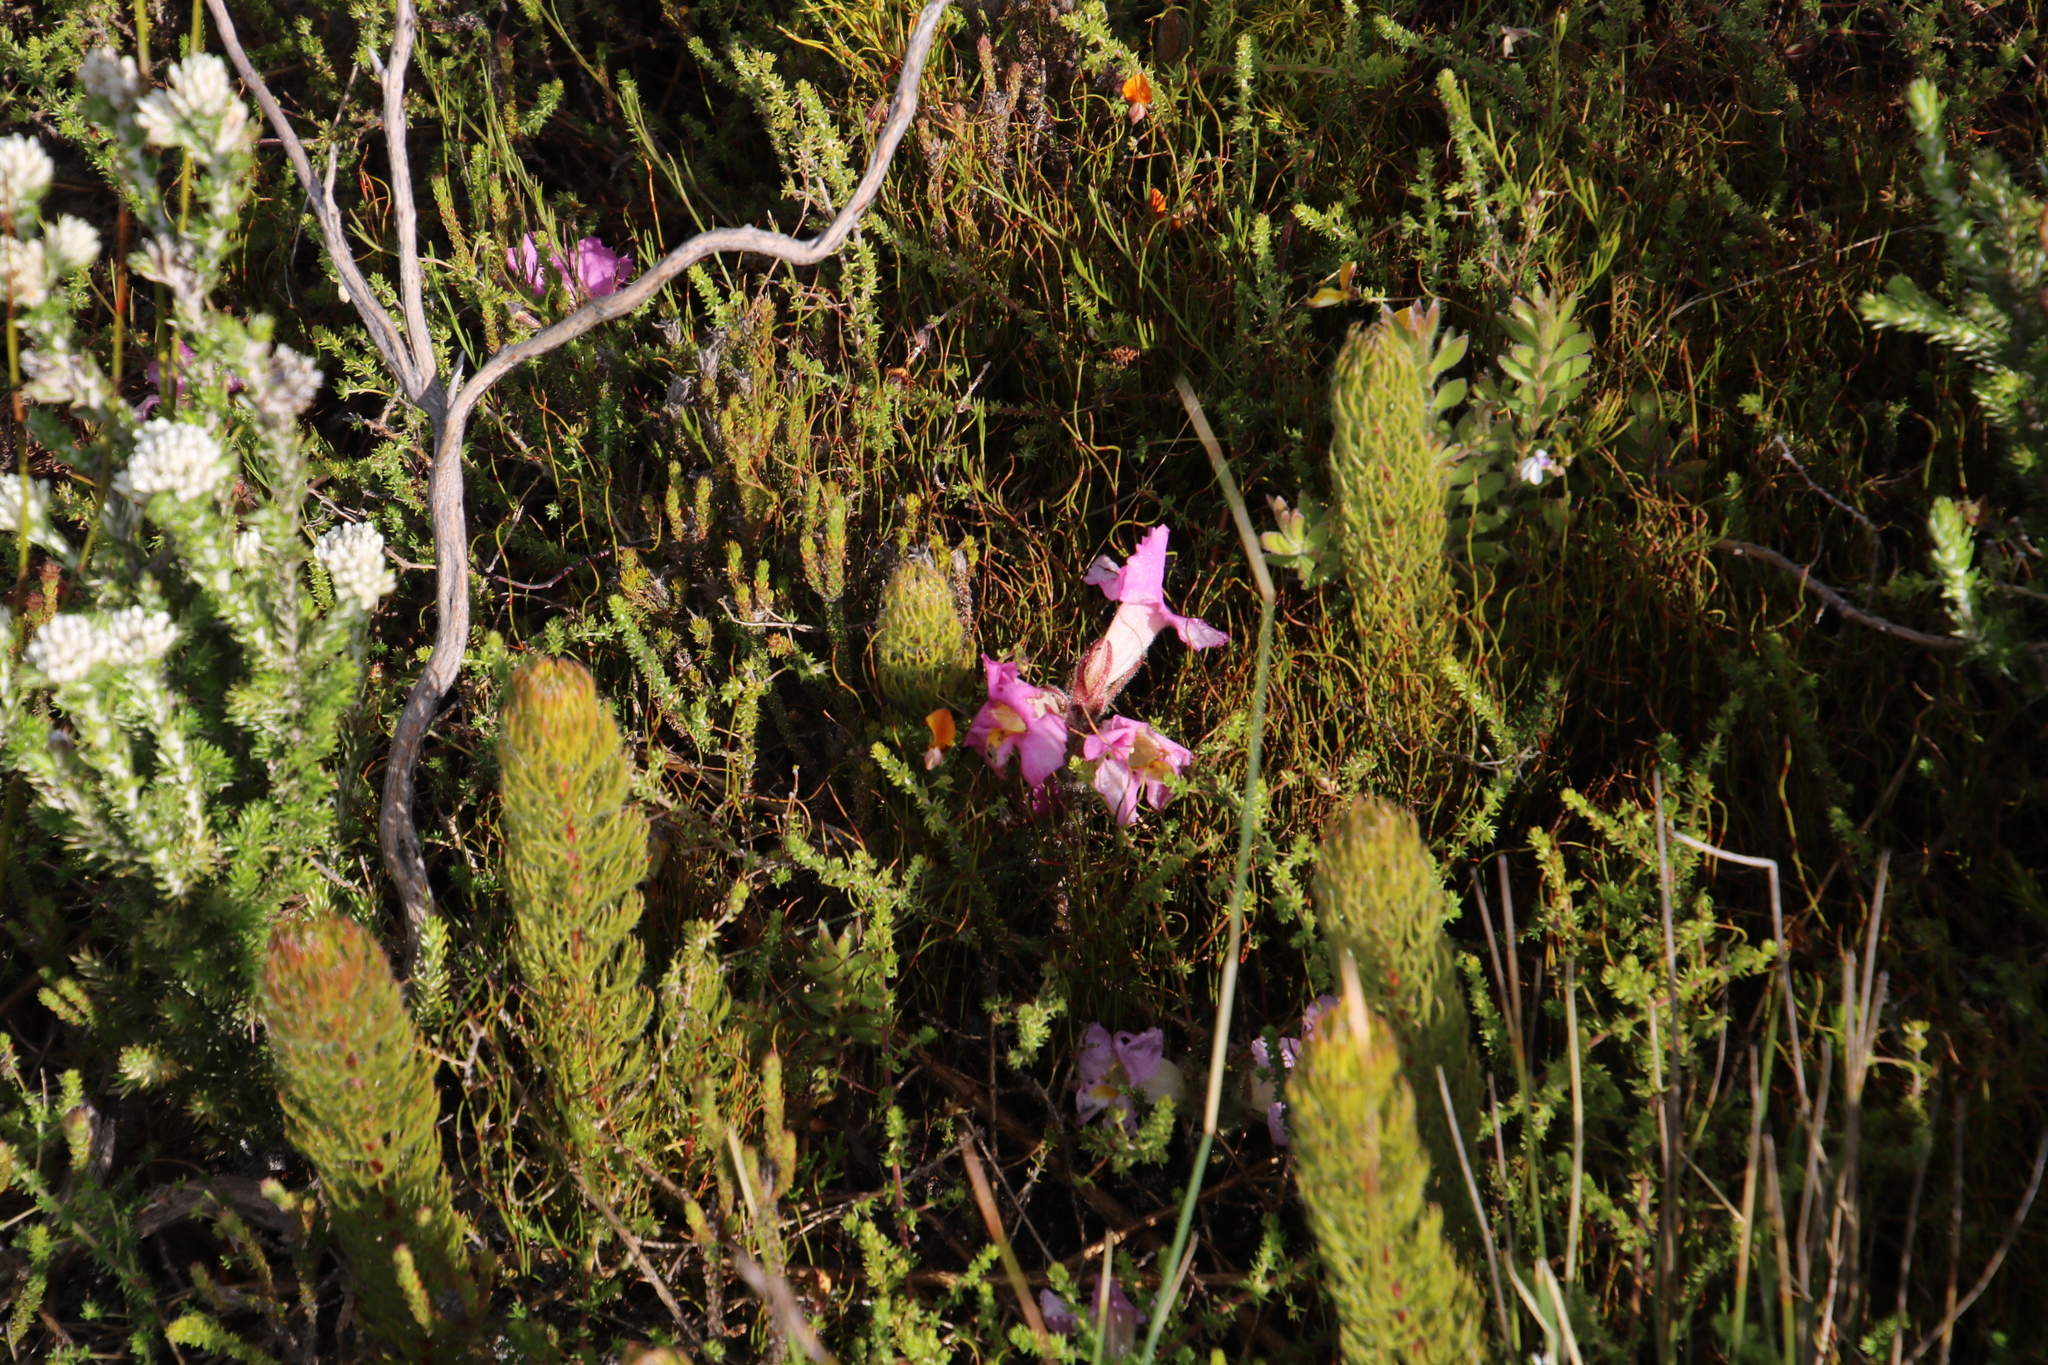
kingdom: Plantae
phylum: Tracheophyta
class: Magnoliopsida
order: Proteales
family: Proteaceae
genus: Serruria
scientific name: Serruria villosa
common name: Golden spiderhead
